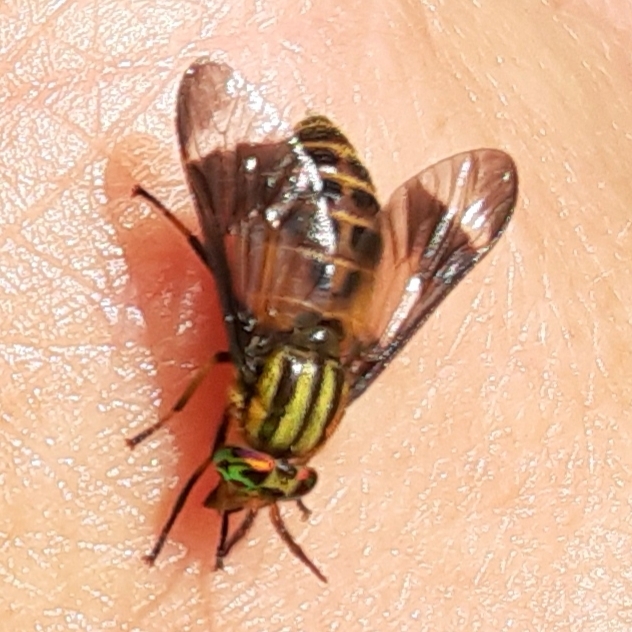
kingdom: Animalia
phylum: Arthropoda
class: Insecta
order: Diptera
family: Tabanidae
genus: Chrysops
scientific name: Chrysops geminatus
